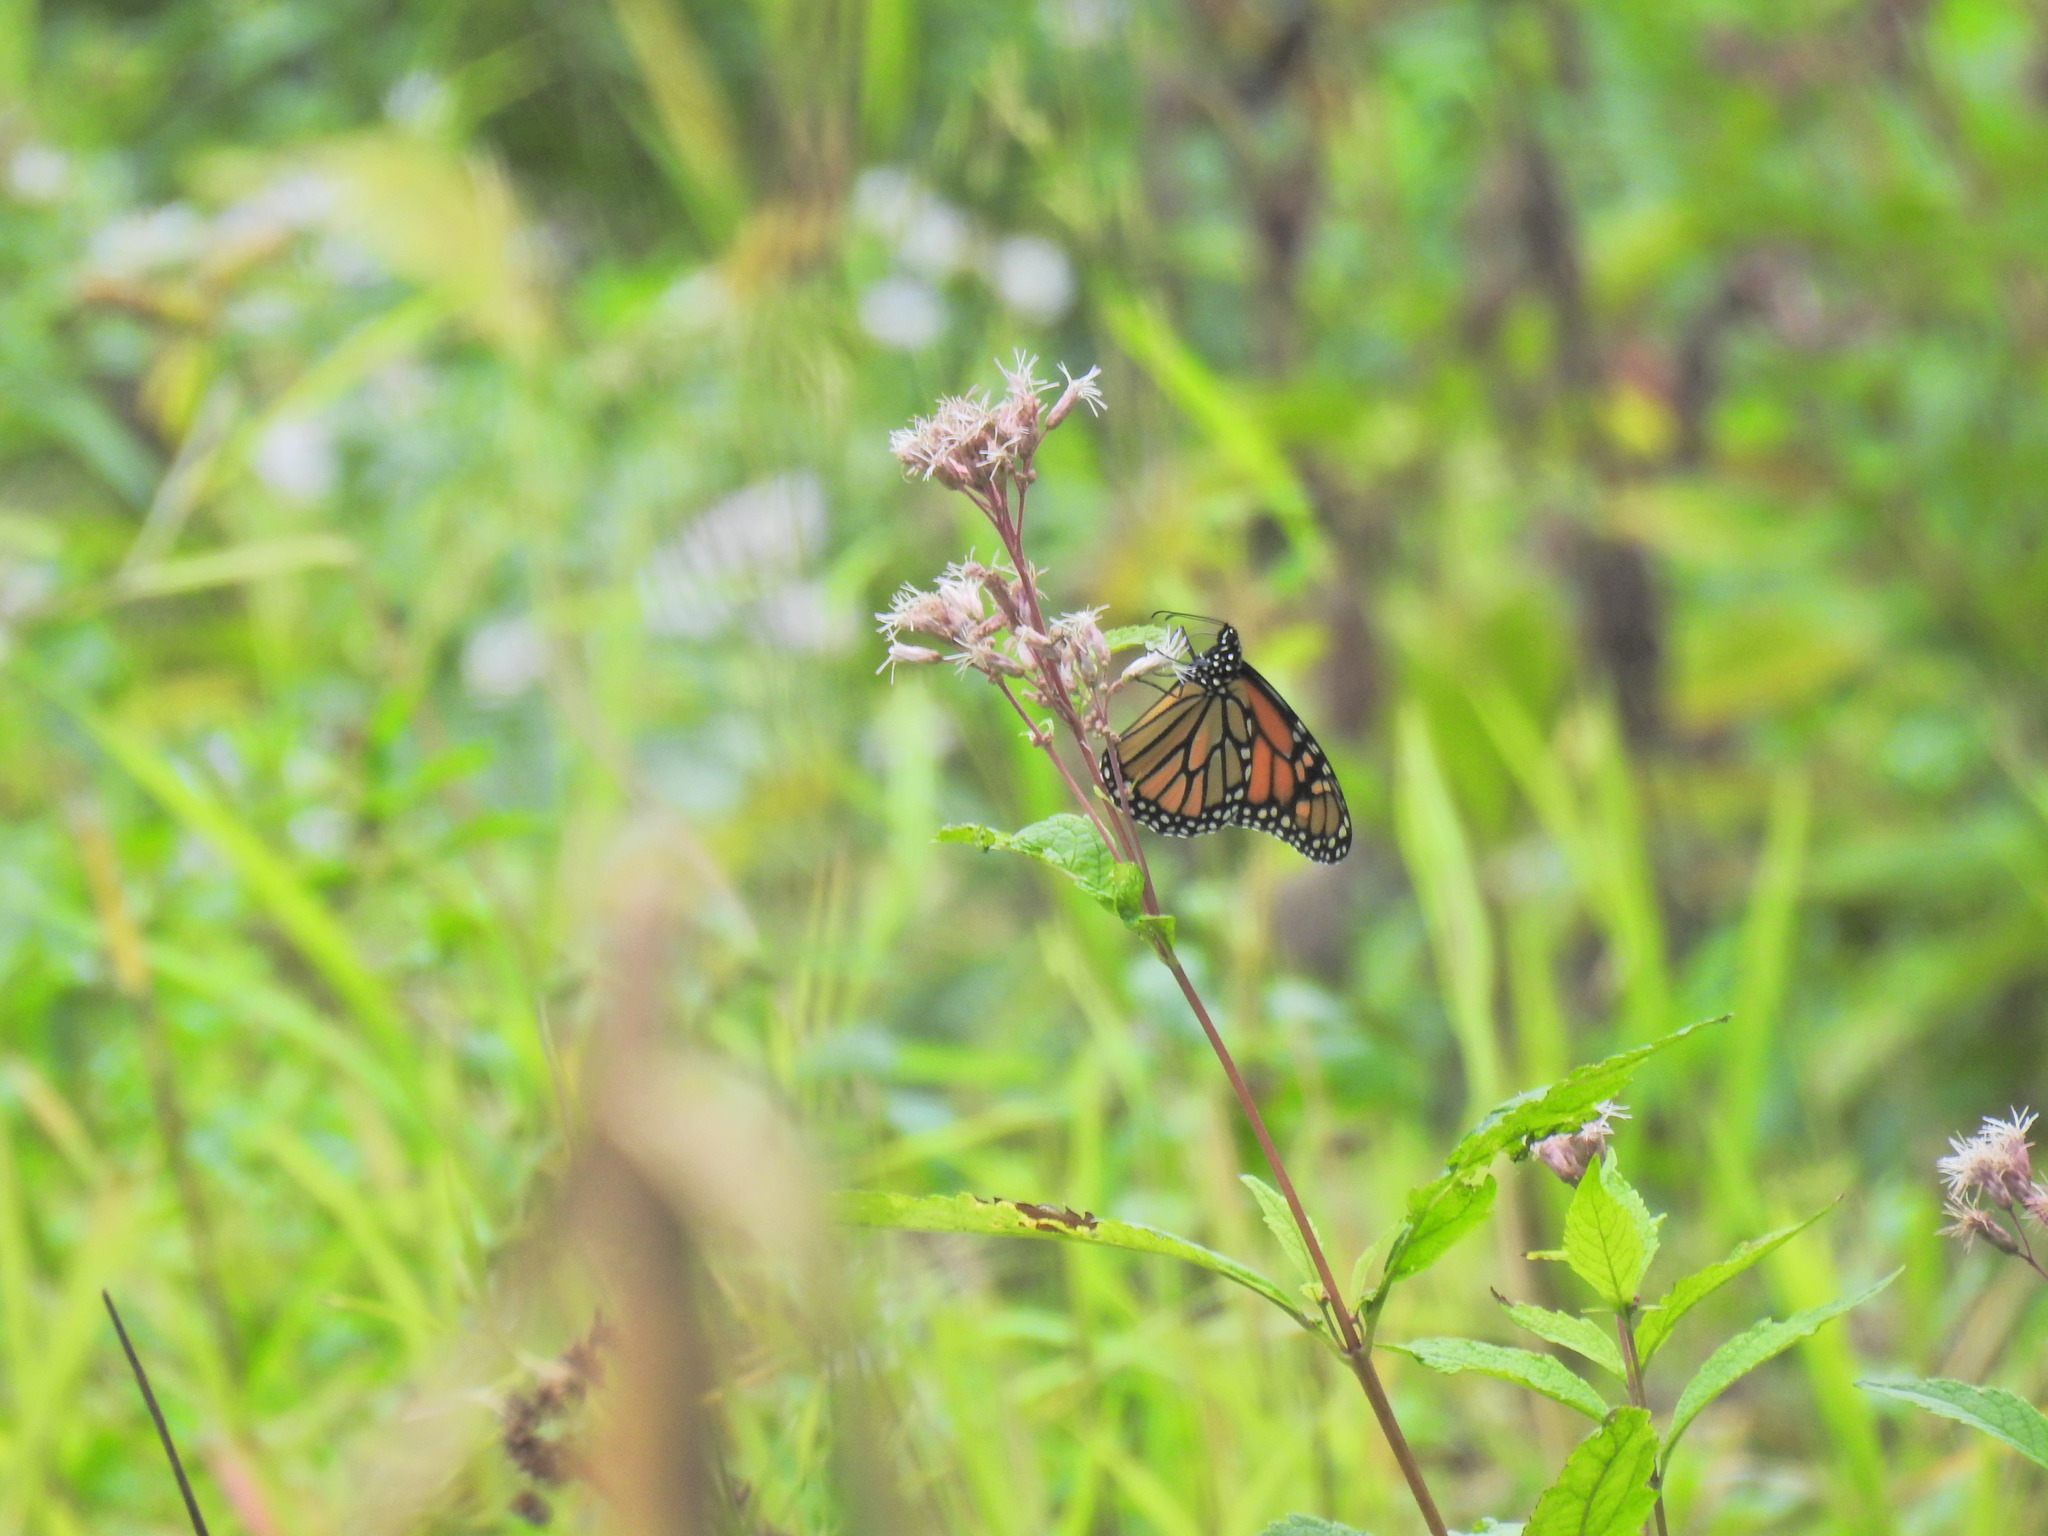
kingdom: Animalia
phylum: Arthropoda
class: Insecta
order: Lepidoptera
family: Nymphalidae
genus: Danaus
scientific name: Danaus plexippus
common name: Monarch
